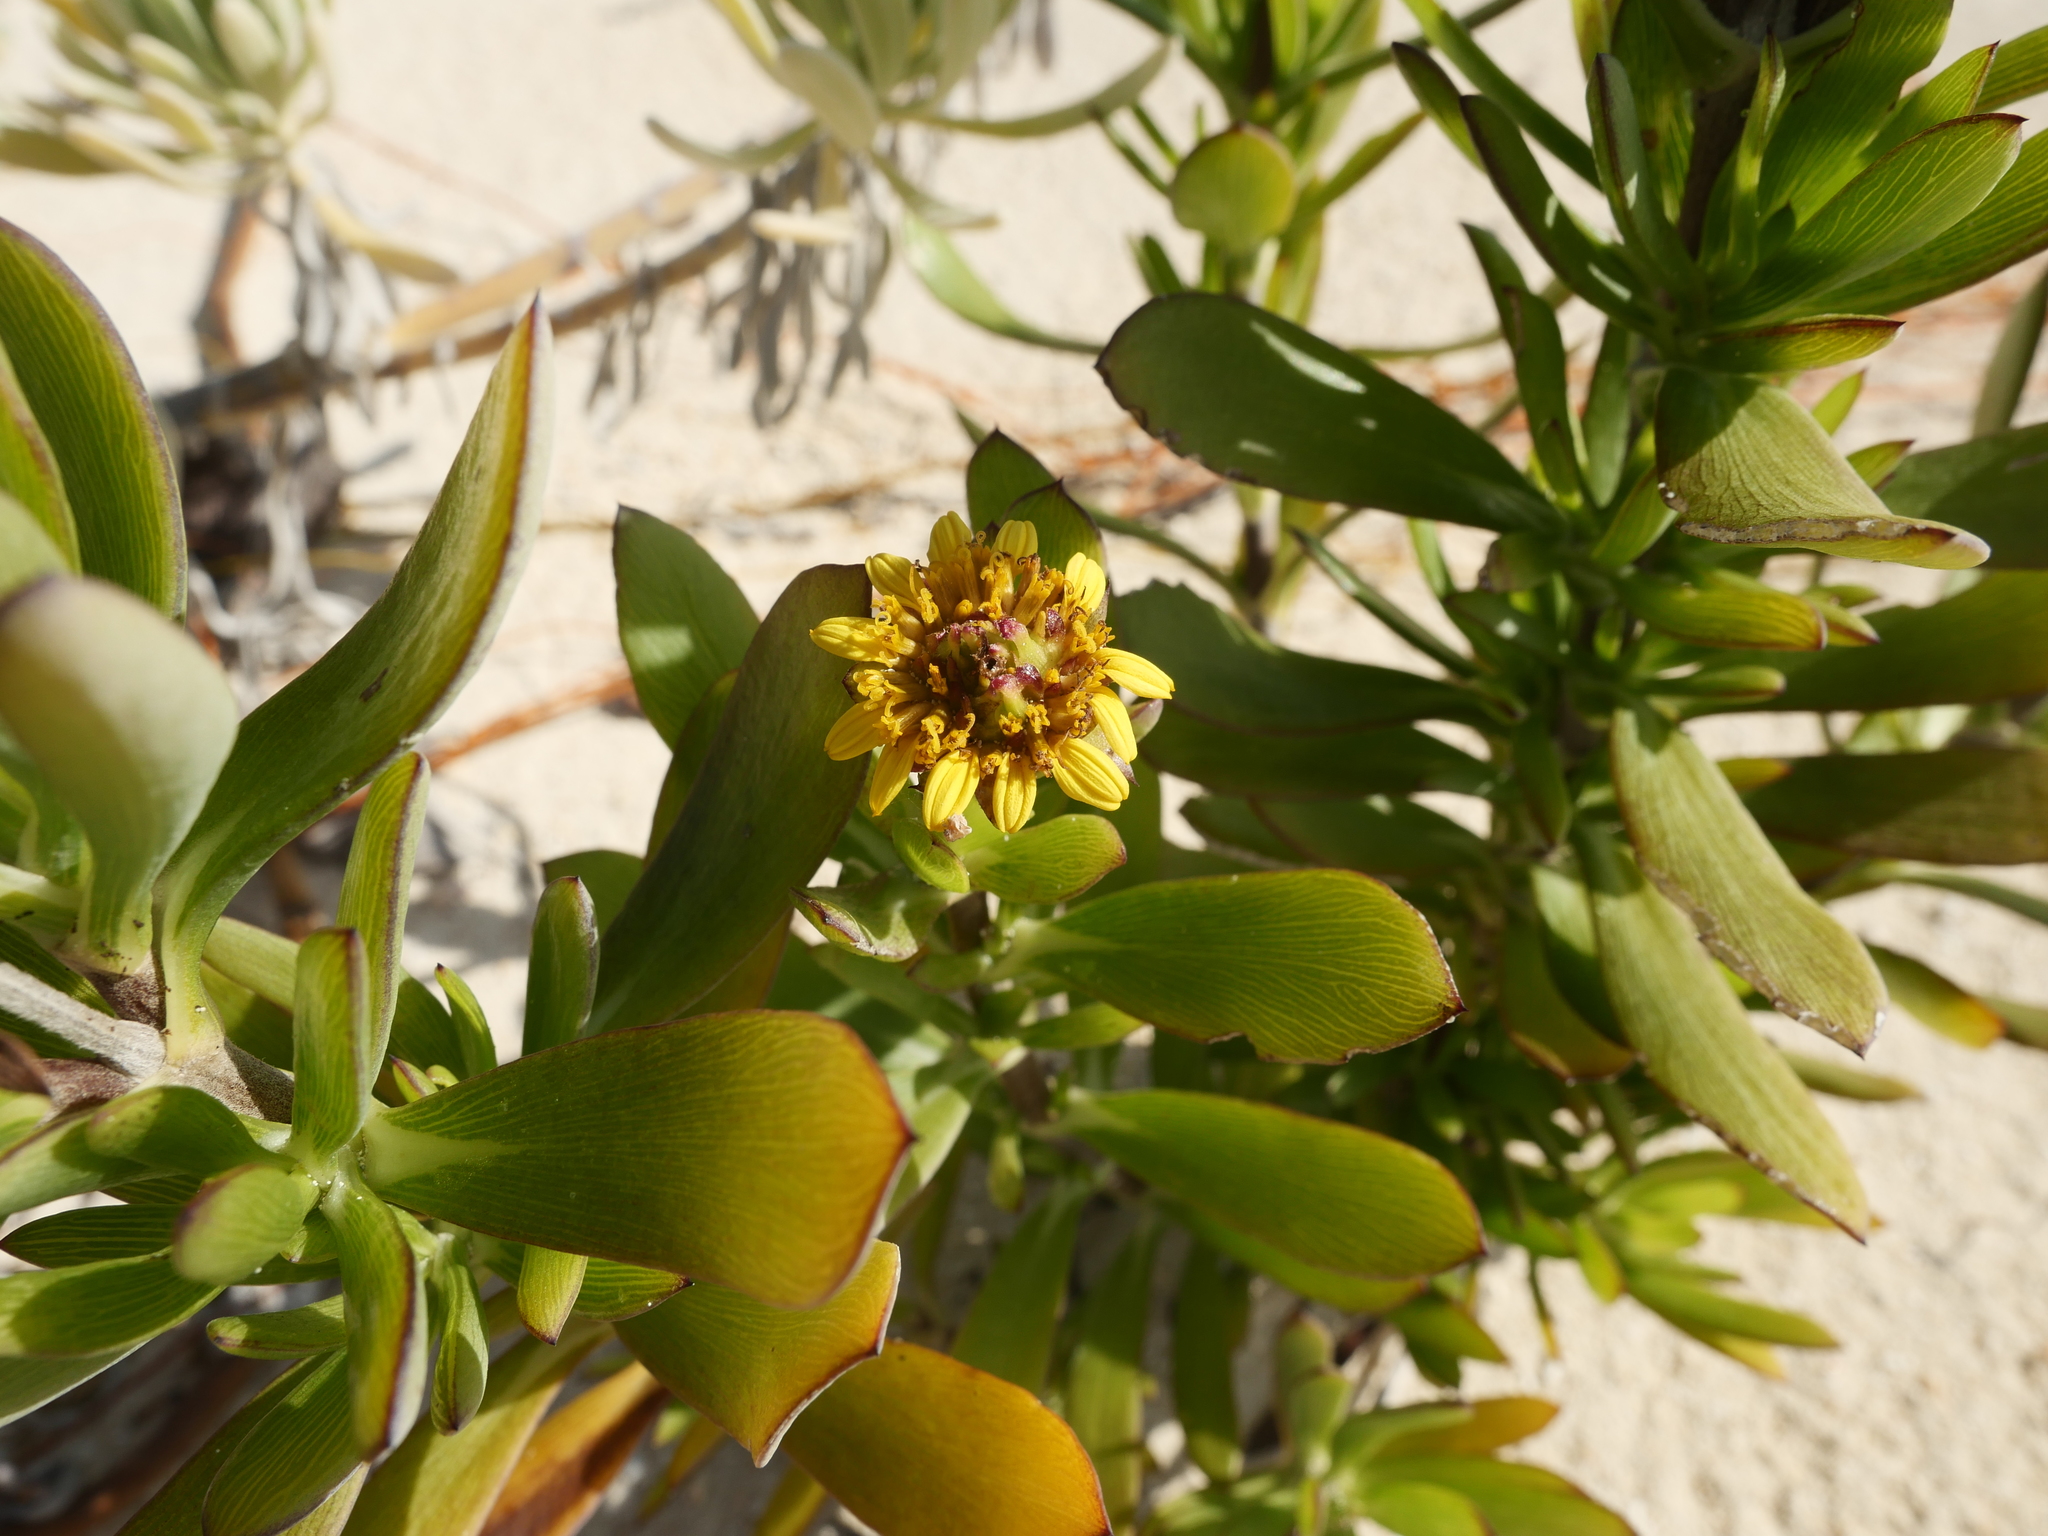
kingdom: Plantae
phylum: Tracheophyta
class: Magnoliopsida
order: Asterales
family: Asteraceae
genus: Borrichia
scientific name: Borrichia arborescens
